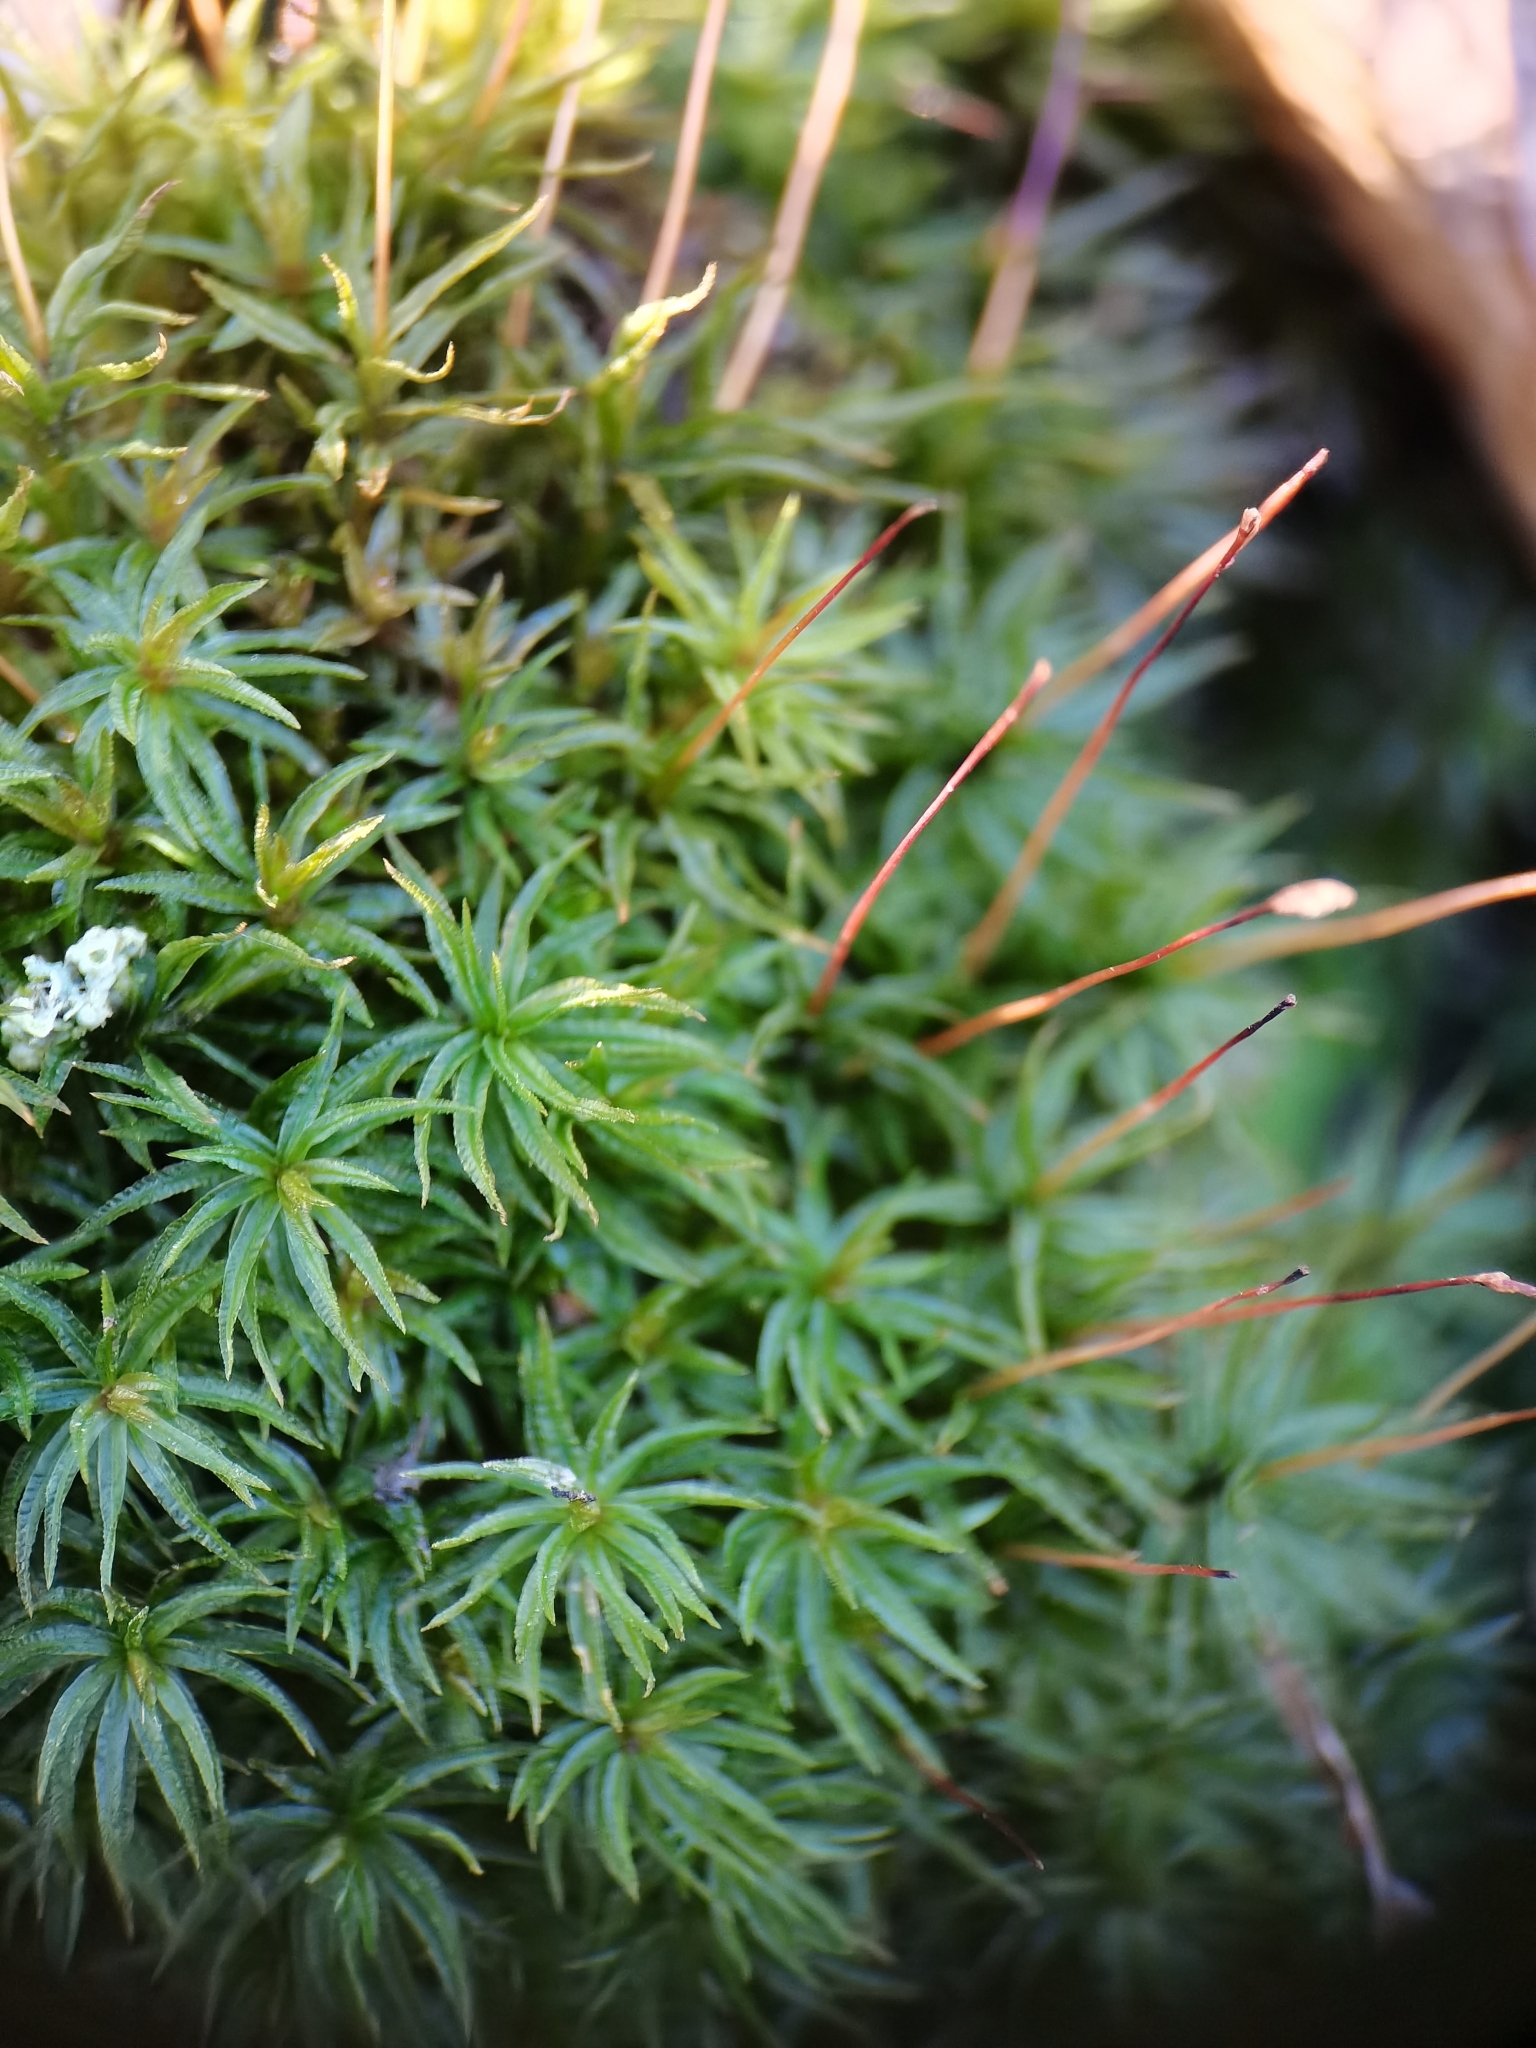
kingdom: Plantae
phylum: Bryophyta
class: Polytrichopsida
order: Polytrichales
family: Polytrichaceae
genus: Atrichum
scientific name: Atrichum undulatum
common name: Common smoothcap
